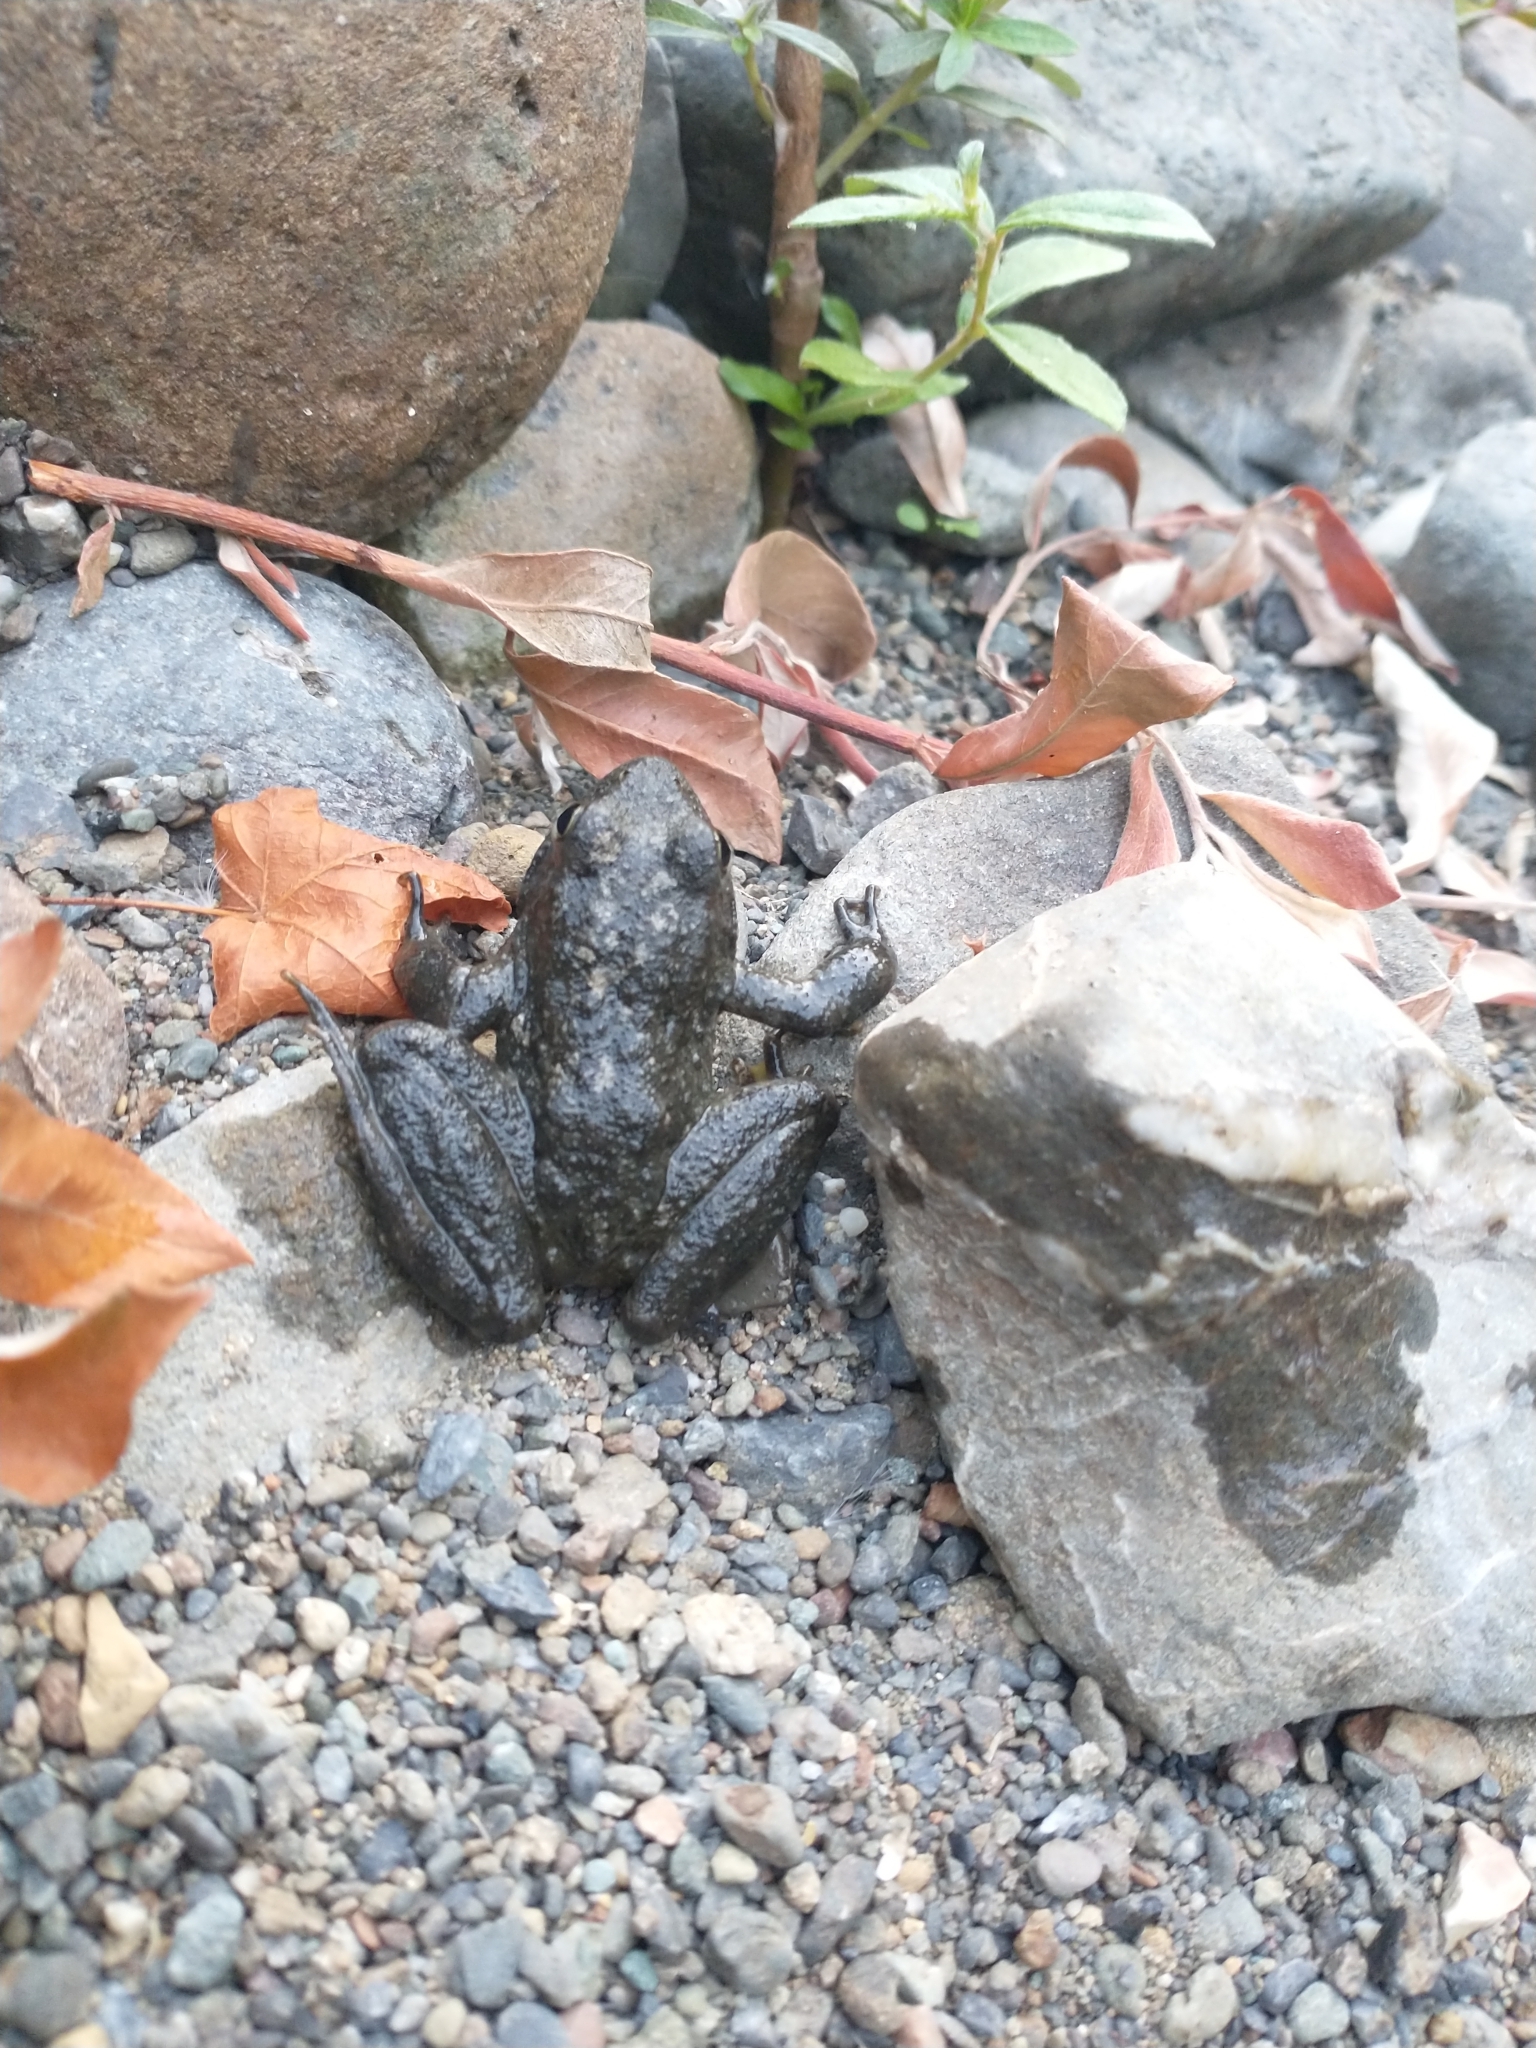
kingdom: Animalia
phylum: Chordata
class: Amphibia
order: Anura
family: Ranidae
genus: Rana
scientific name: Rana boylii
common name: Foothill yellow-legged frog
